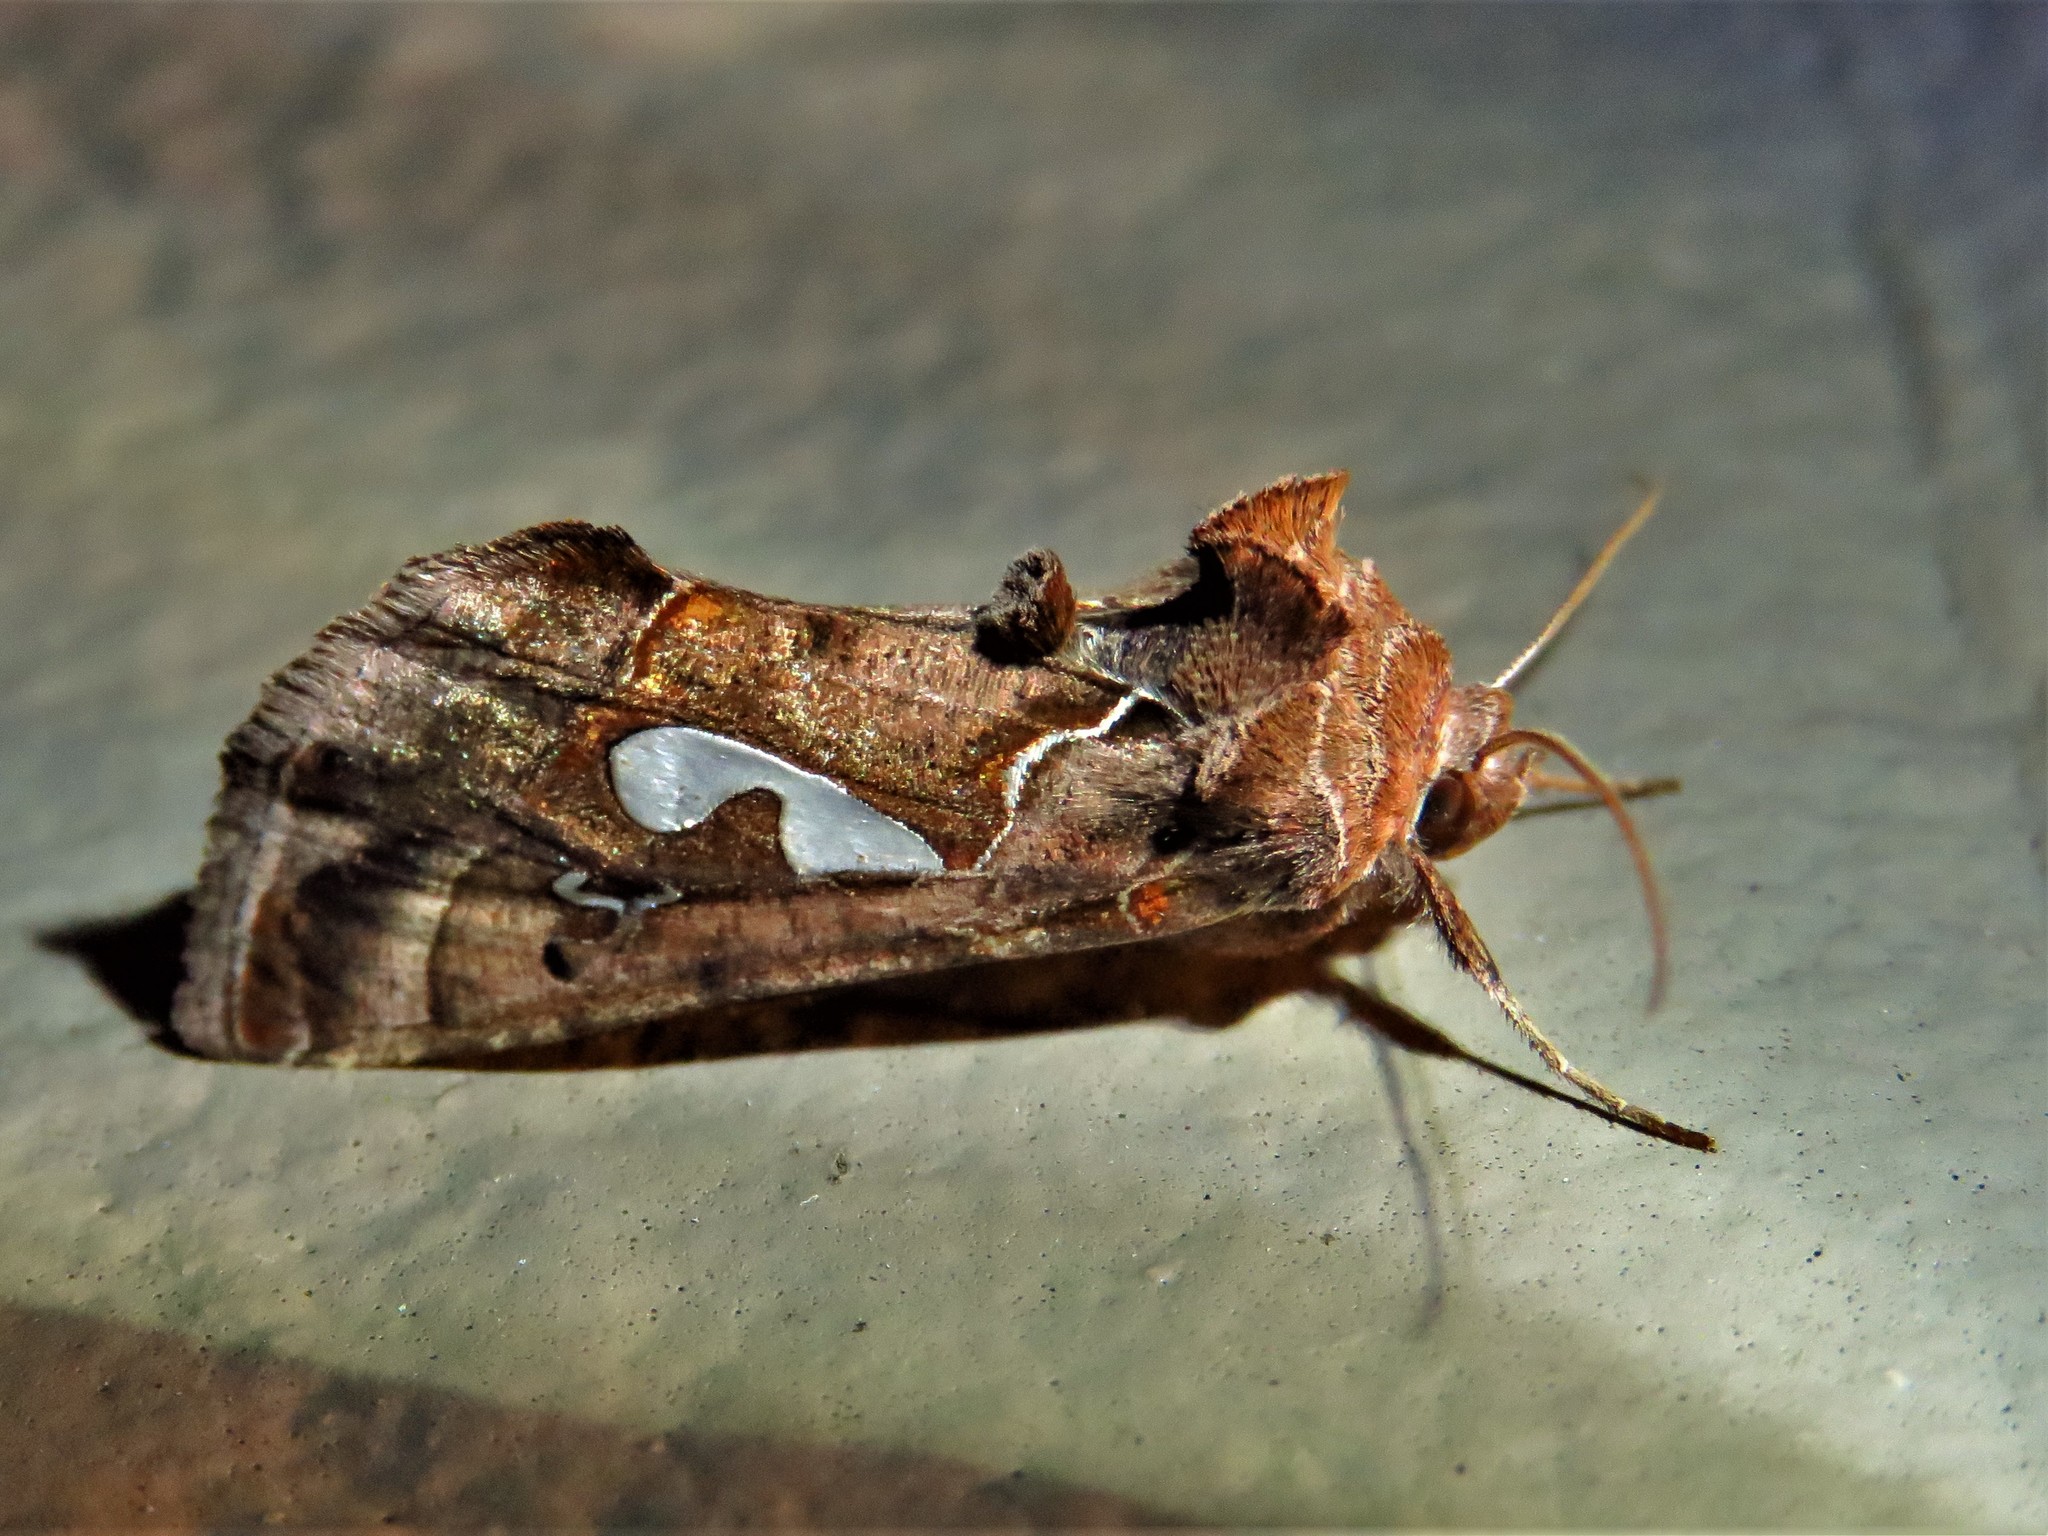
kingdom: Animalia
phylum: Arthropoda
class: Insecta
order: Lepidoptera
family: Noctuidae
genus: Megalographa
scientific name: Megalographa biloba
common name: Cutworm
